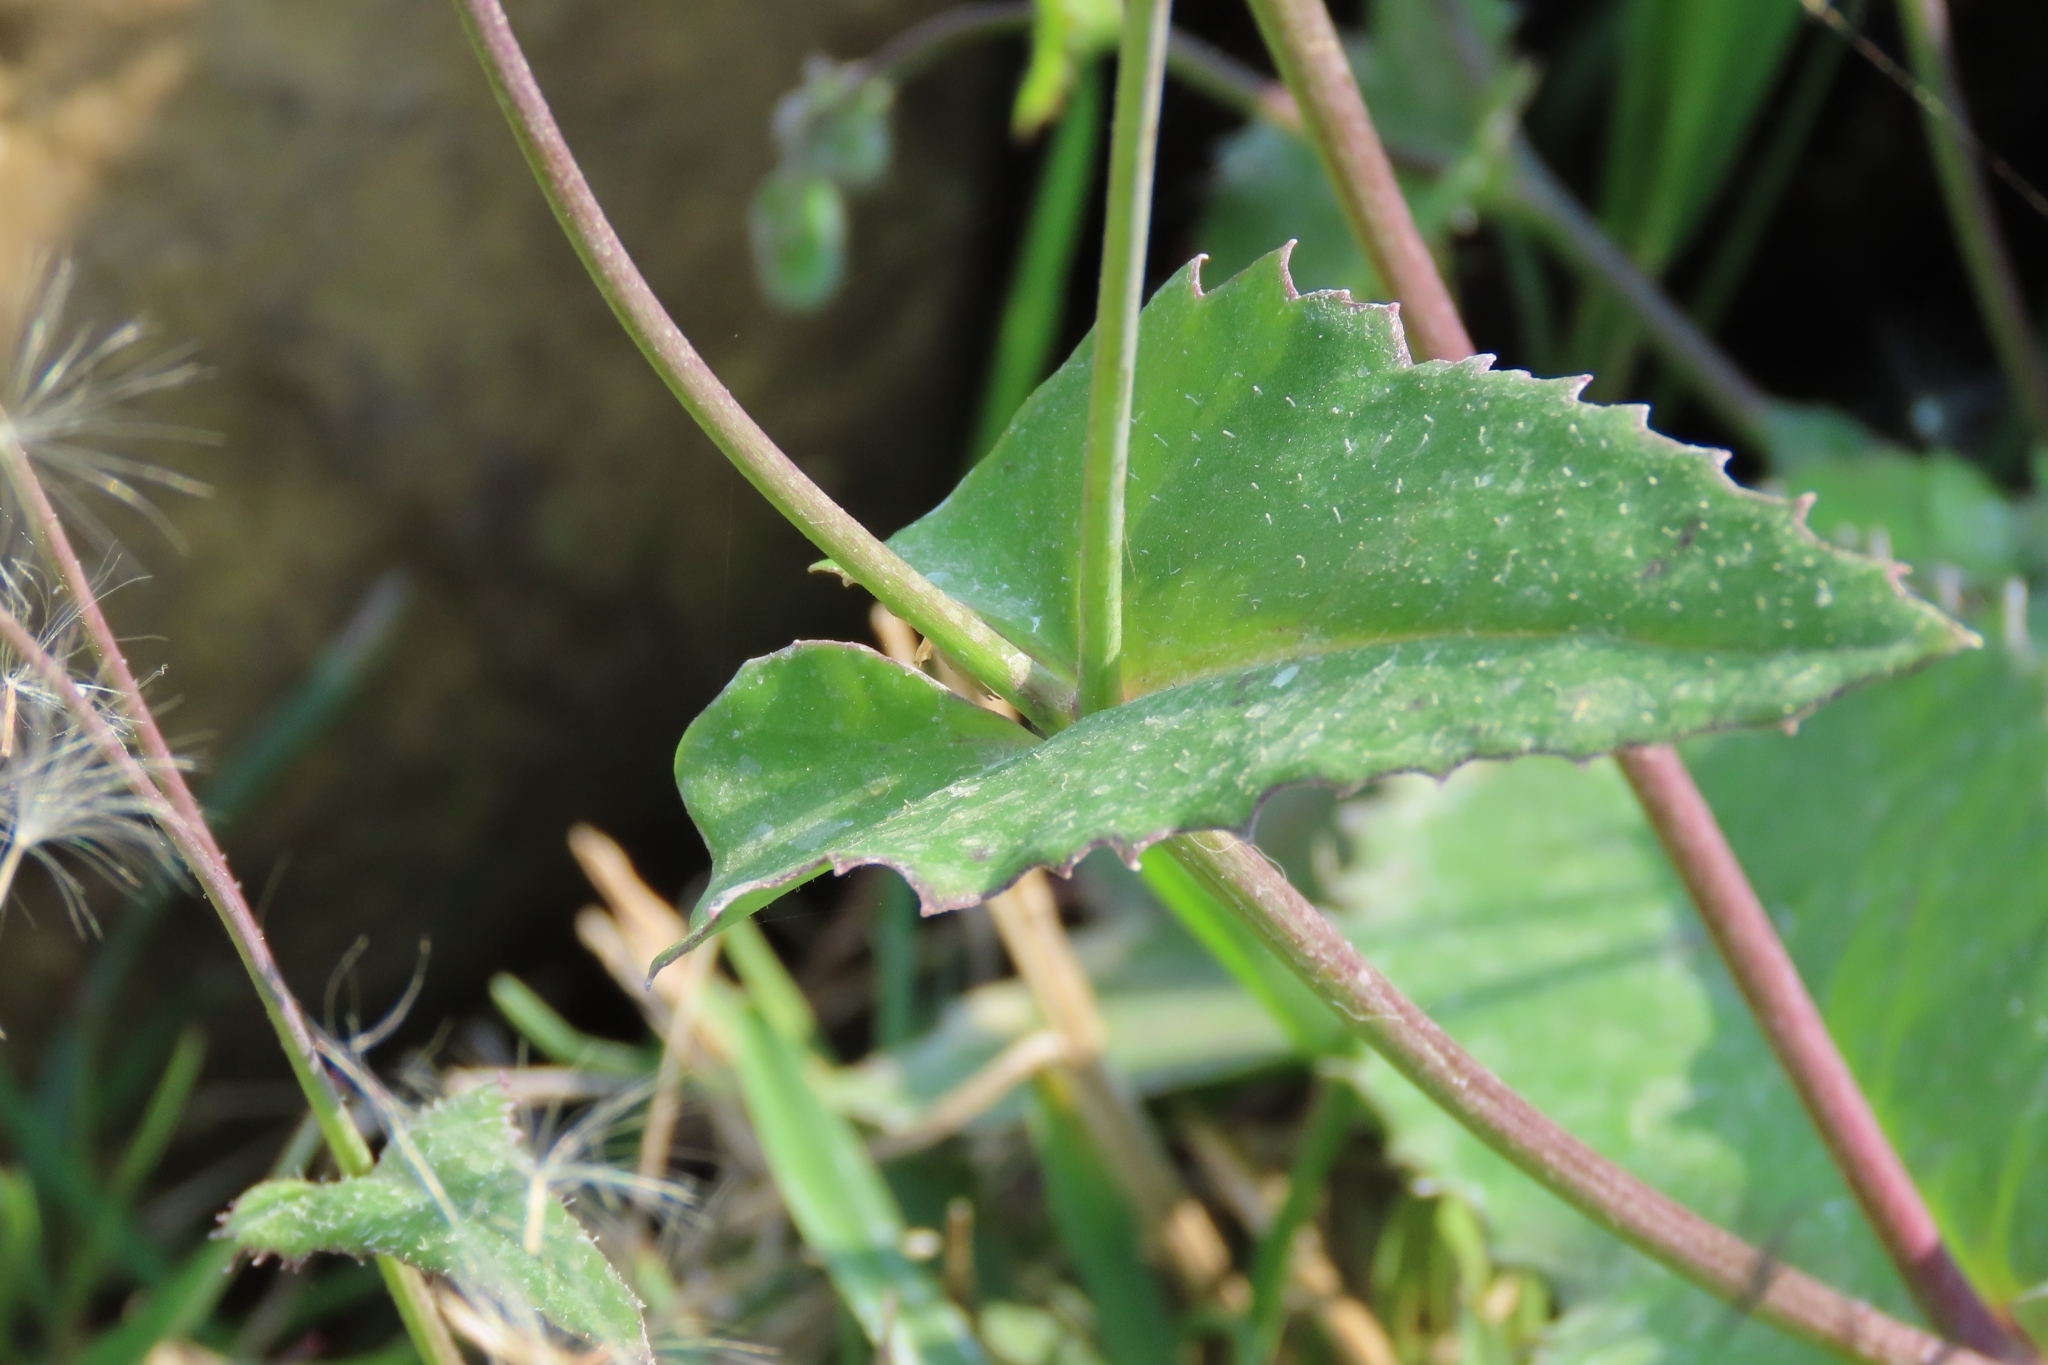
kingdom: Plantae
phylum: Tracheophyta
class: Magnoliopsida
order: Asterales
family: Asteraceae
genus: Emilia
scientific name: Emilia praetermissa
